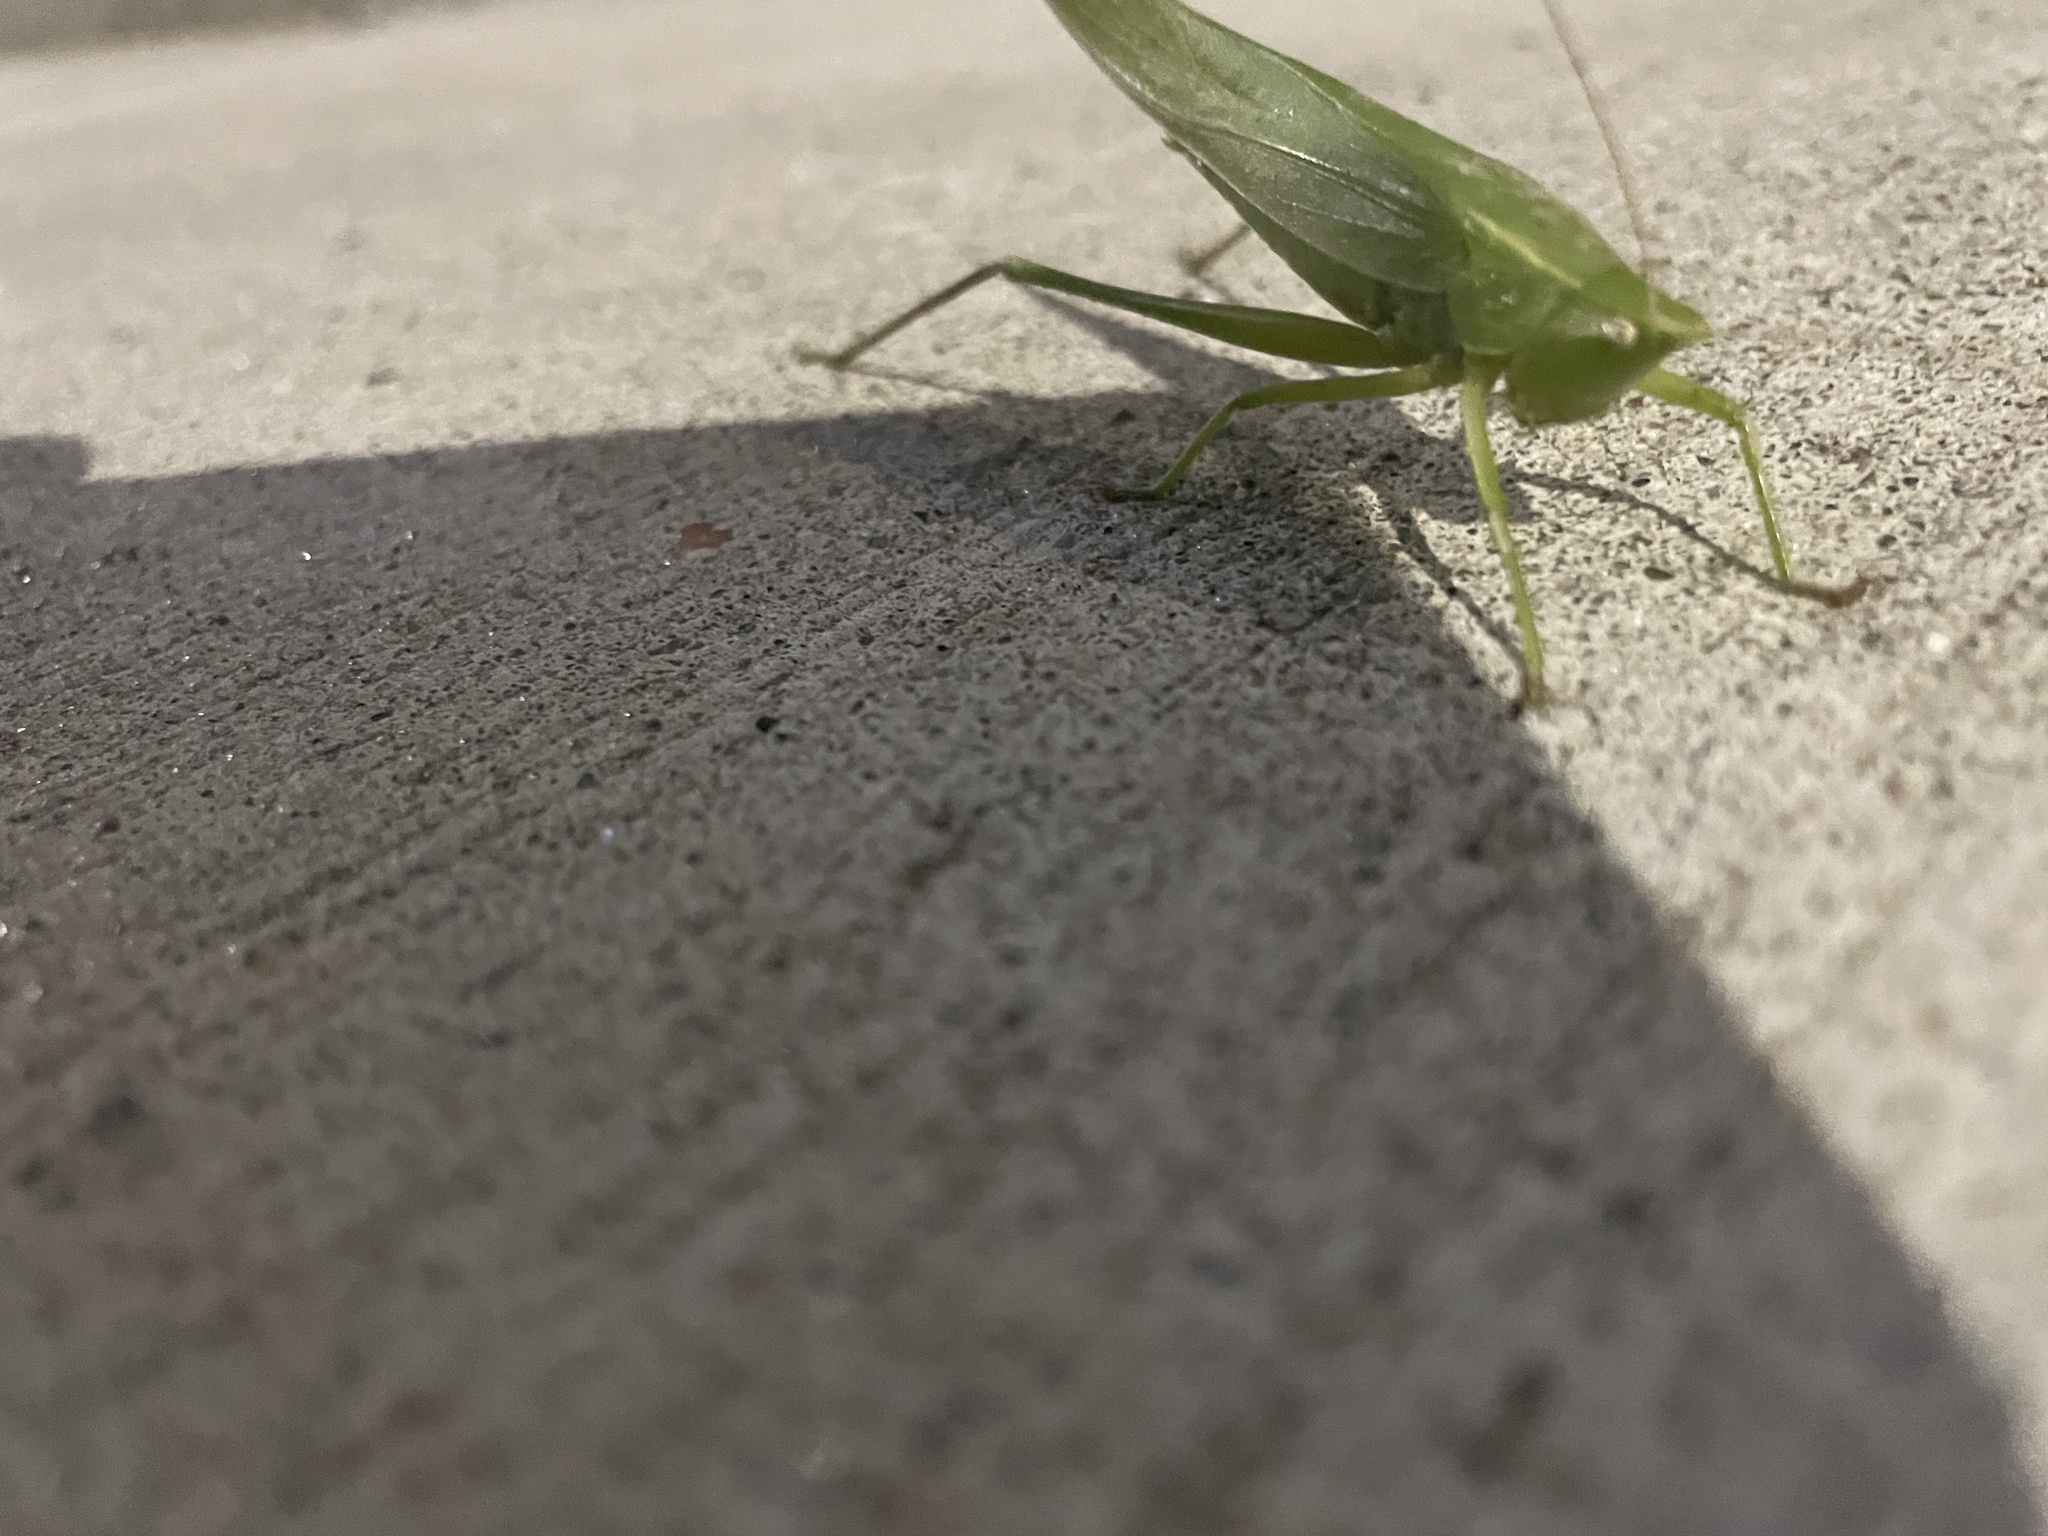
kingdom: Animalia
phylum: Arthropoda
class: Insecta
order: Orthoptera
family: Tettigoniidae
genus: Neoconocephalus
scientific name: Neoconocephalus ensiger
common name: Swordbearer
